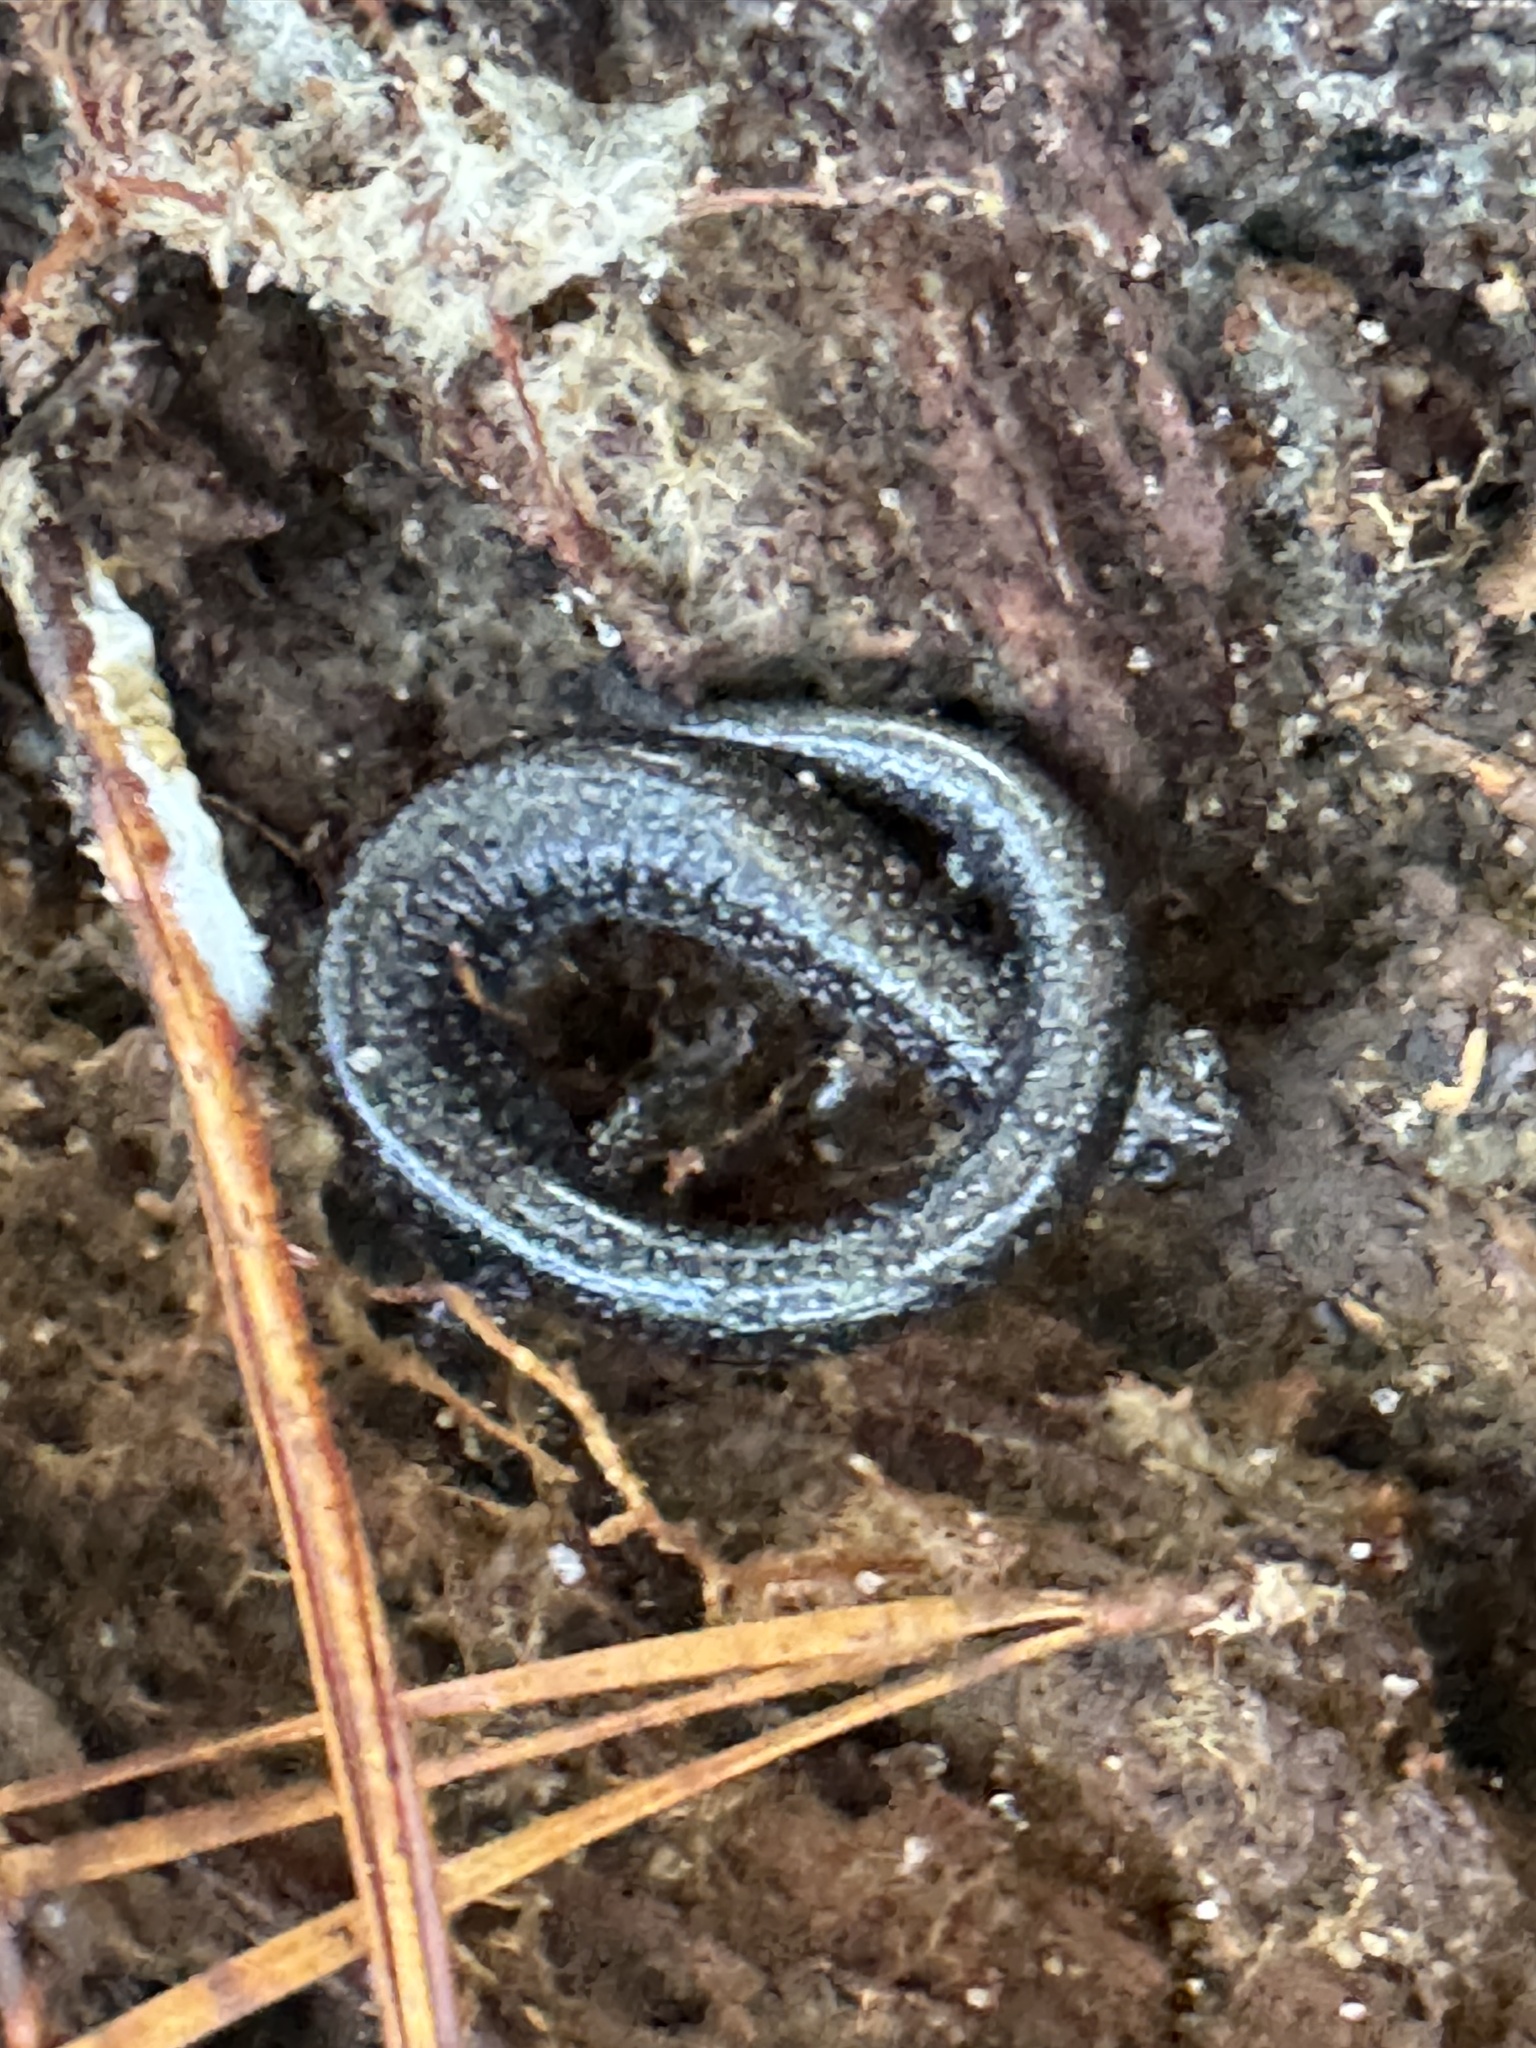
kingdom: Animalia
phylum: Chordata
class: Amphibia
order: Caudata
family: Plethodontidae
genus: Plethodon
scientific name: Plethodon cinereus
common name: Redback salamander
